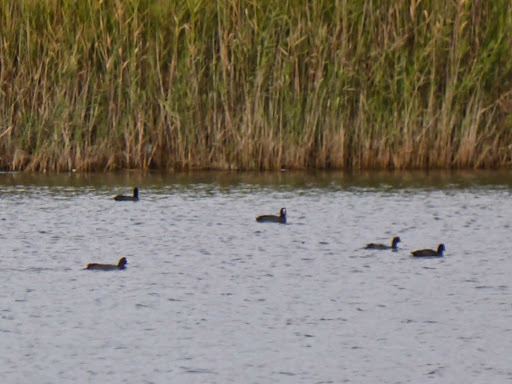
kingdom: Animalia
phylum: Chordata
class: Aves
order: Gruiformes
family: Rallidae
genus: Fulica
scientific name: Fulica atra
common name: Eurasian coot
